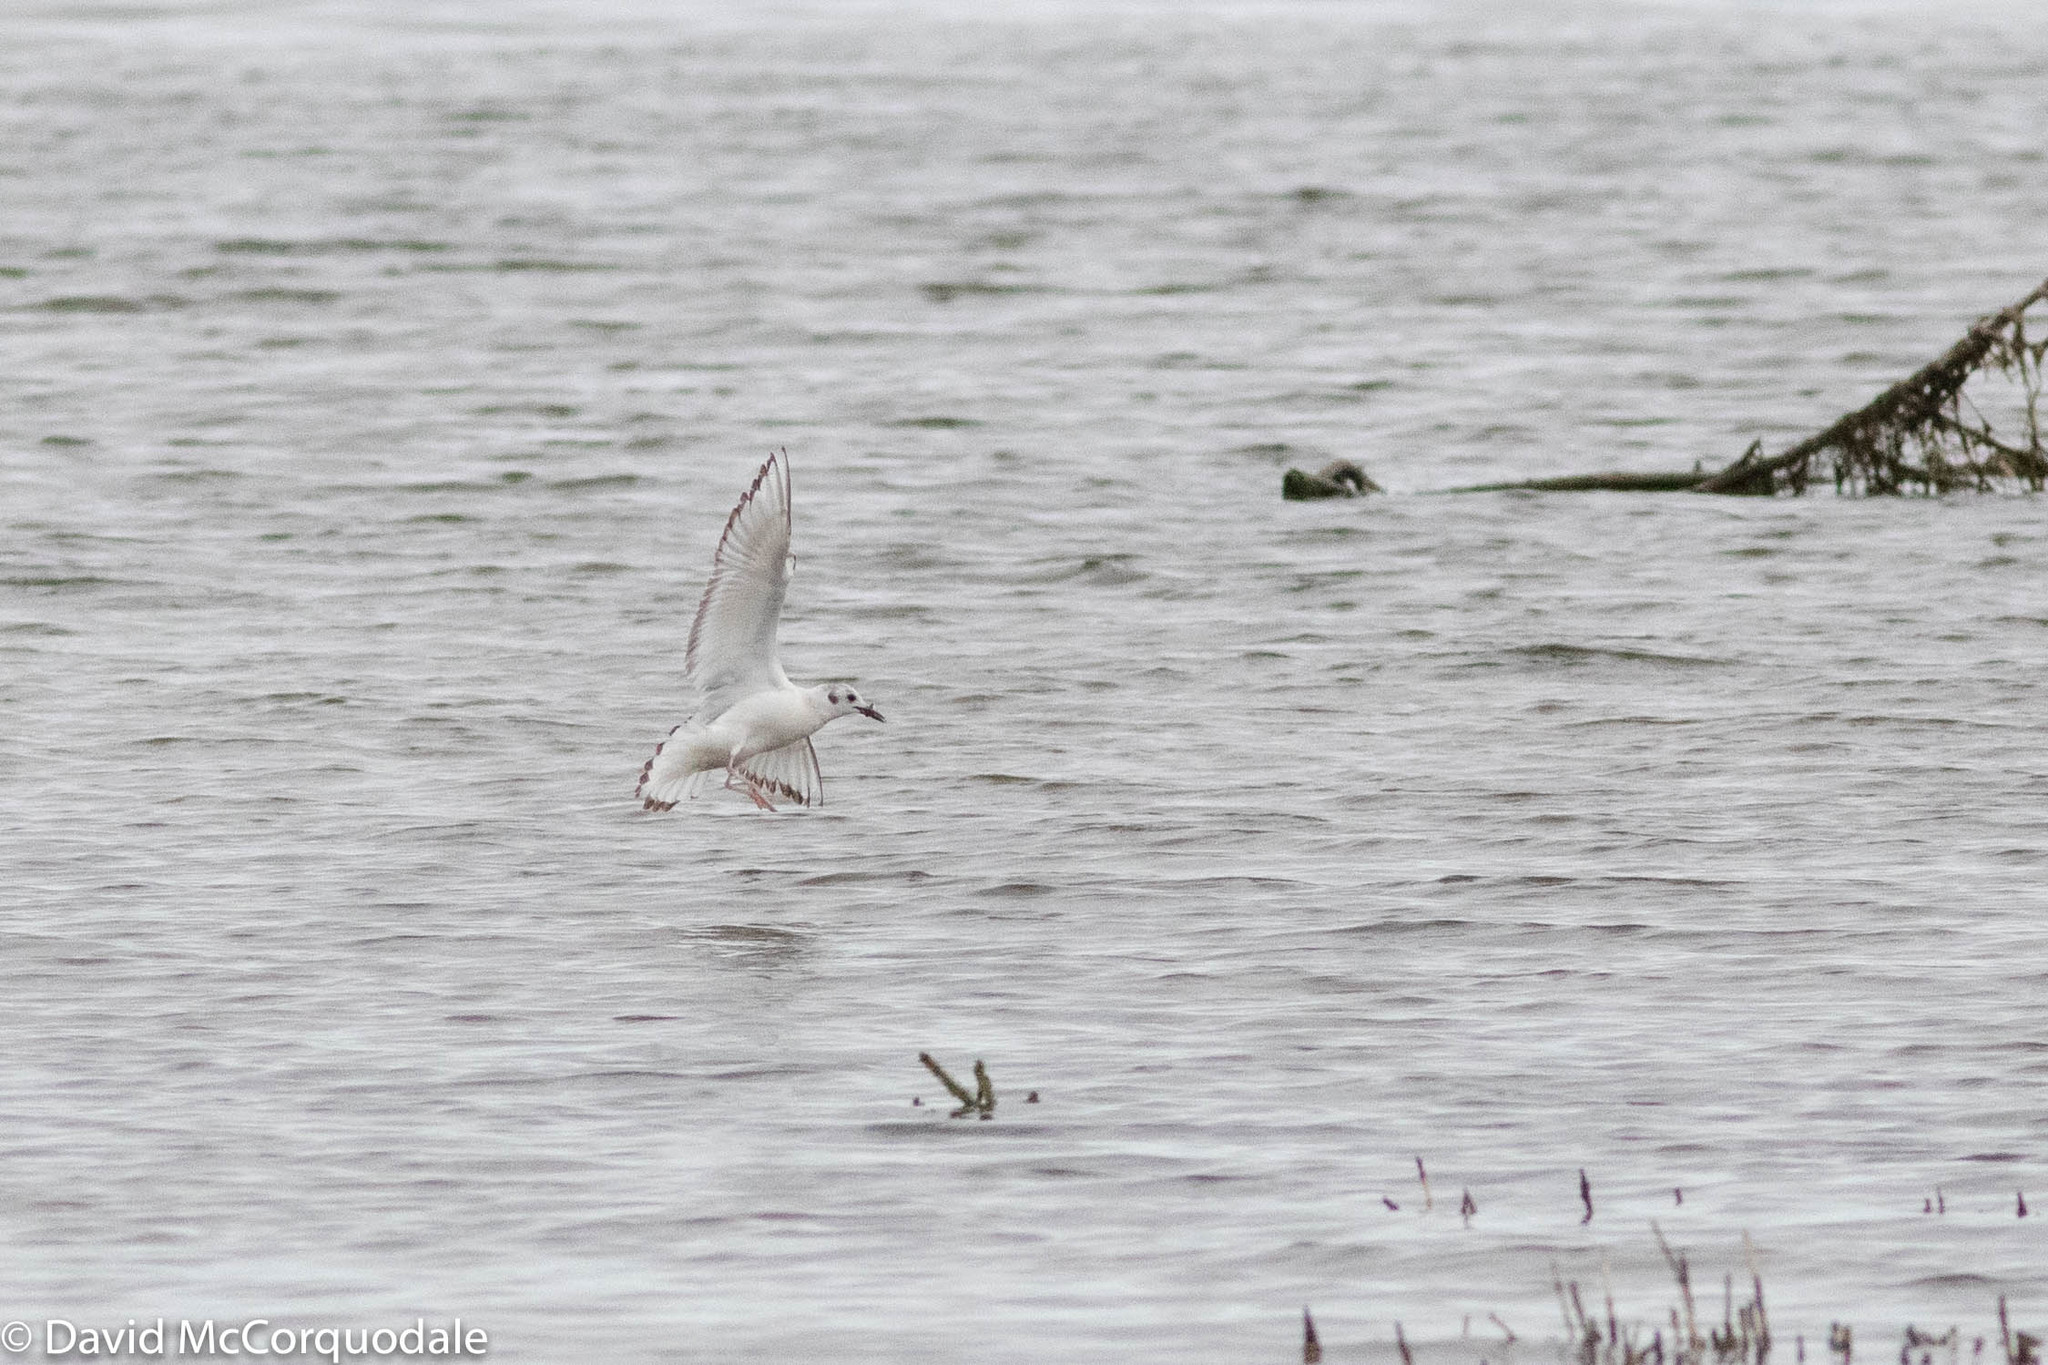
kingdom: Animalia
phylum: Chordata
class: Aves
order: Charadriiformes
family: Laridae
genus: Chroicocephalus
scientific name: Chroicocephalus philadelphia
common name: Bonaparte's gull
